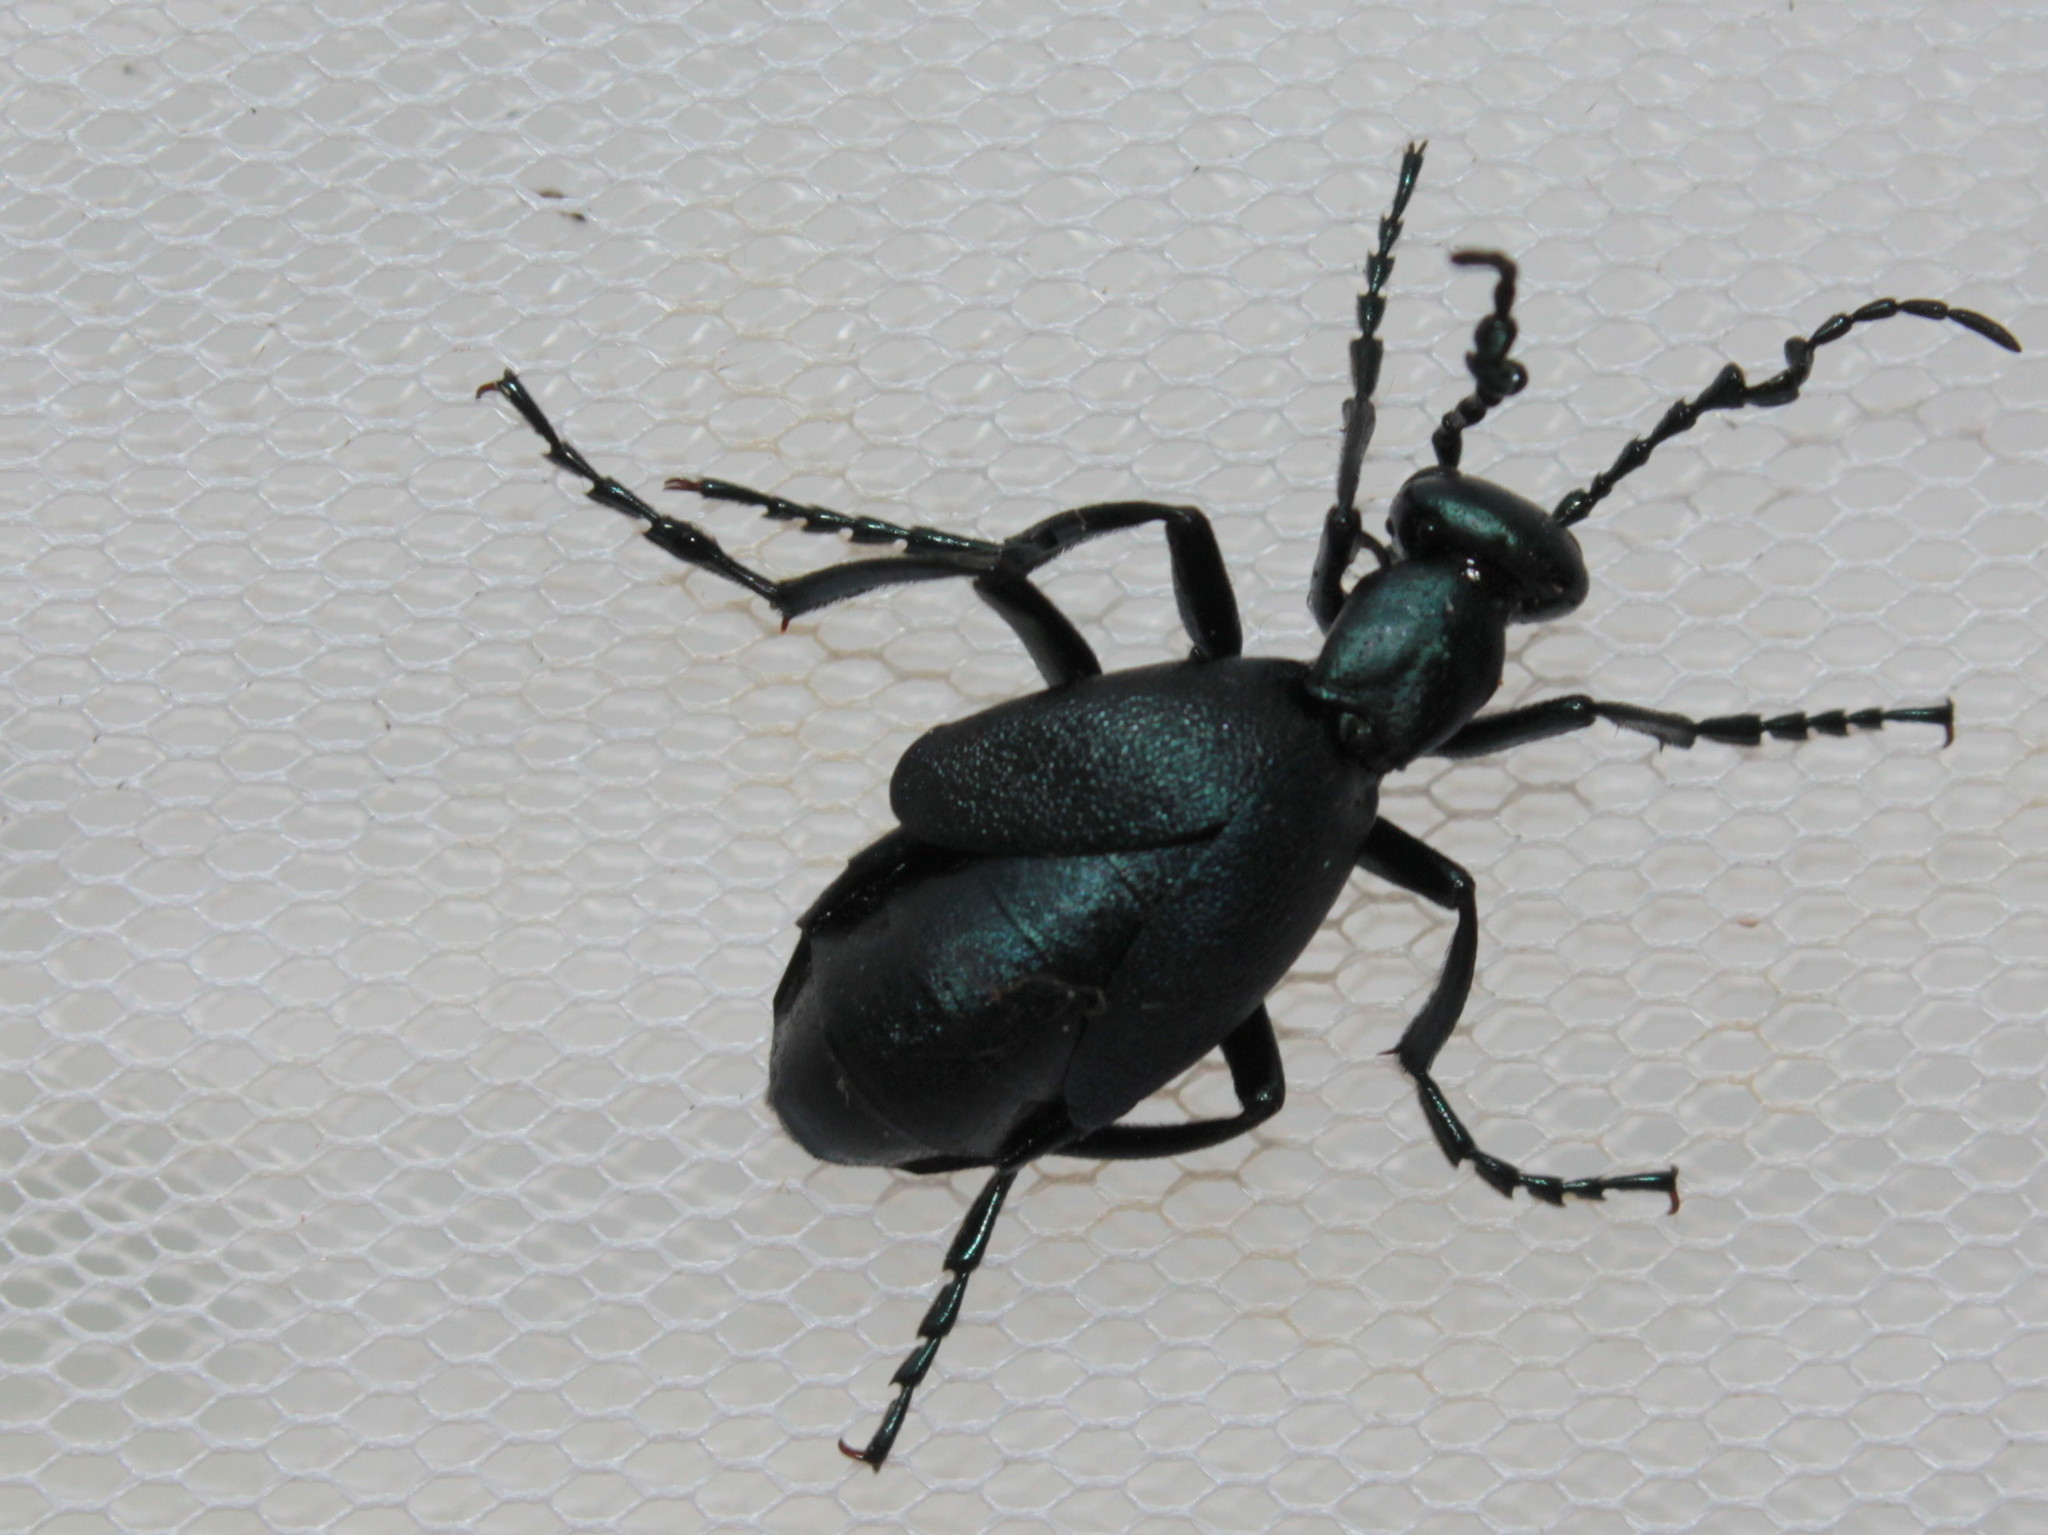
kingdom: Animalia
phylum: Arthropoda
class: Insecta
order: Coleoptera
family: Meloidae
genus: Meloe
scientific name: Meloe impressus
